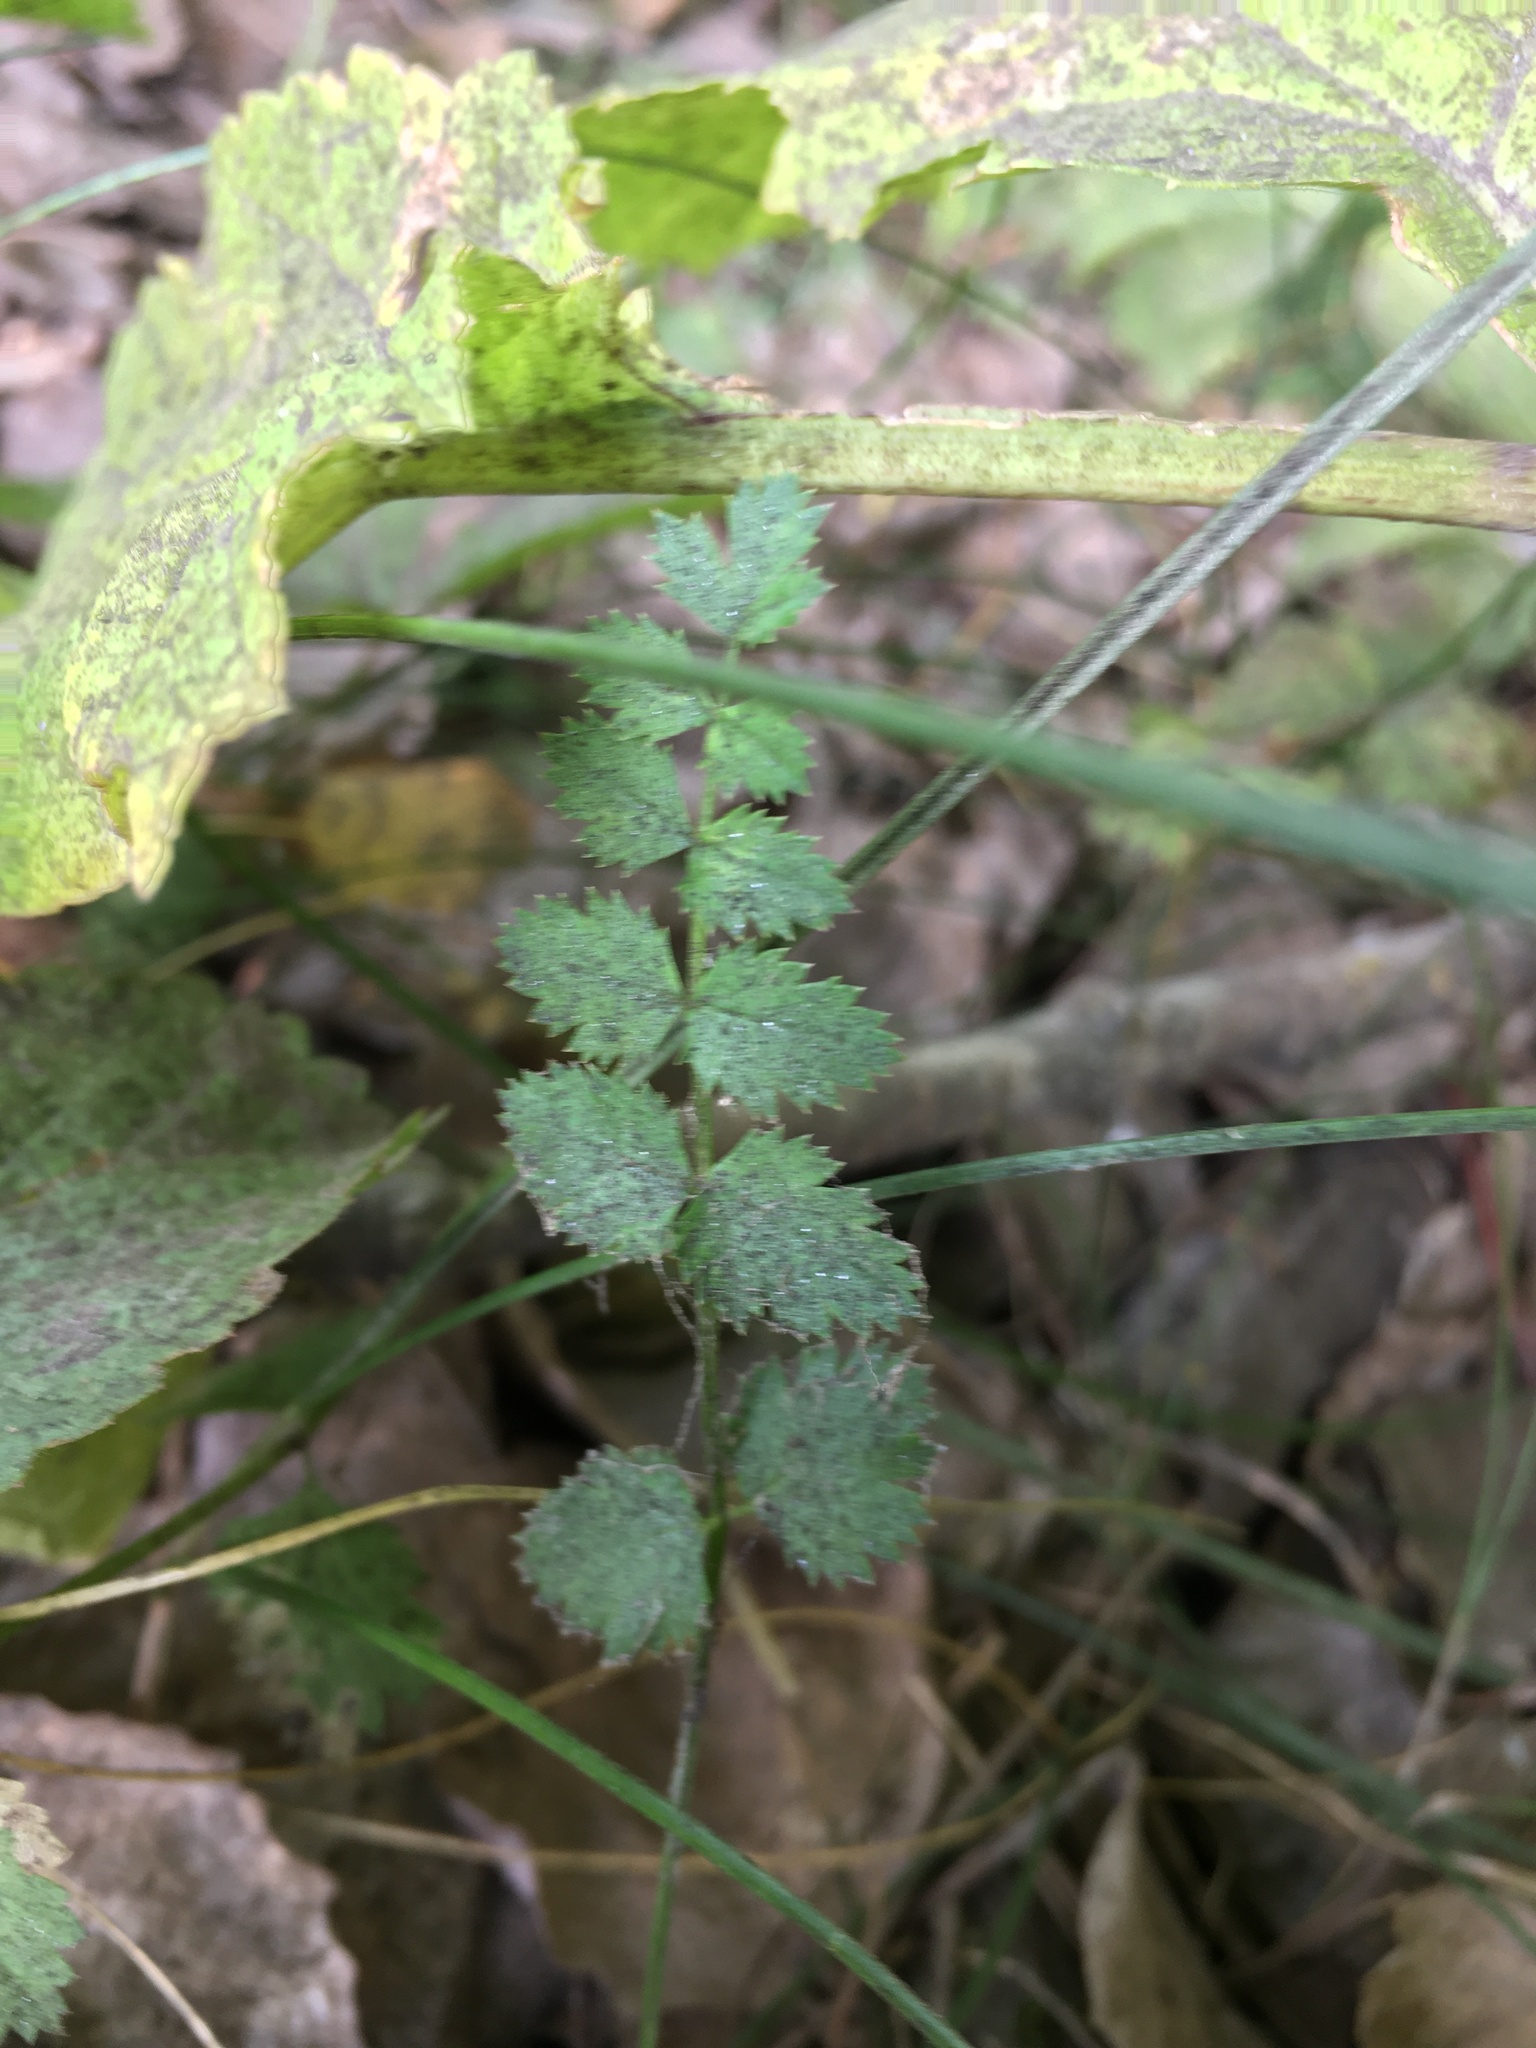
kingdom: Plantae
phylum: Tracheophyta
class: Magnoliopsida
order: Apiales
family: Apiaceae
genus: Pimpinella
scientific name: Pimpinella saxifraga
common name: Burnet-saxifrage
